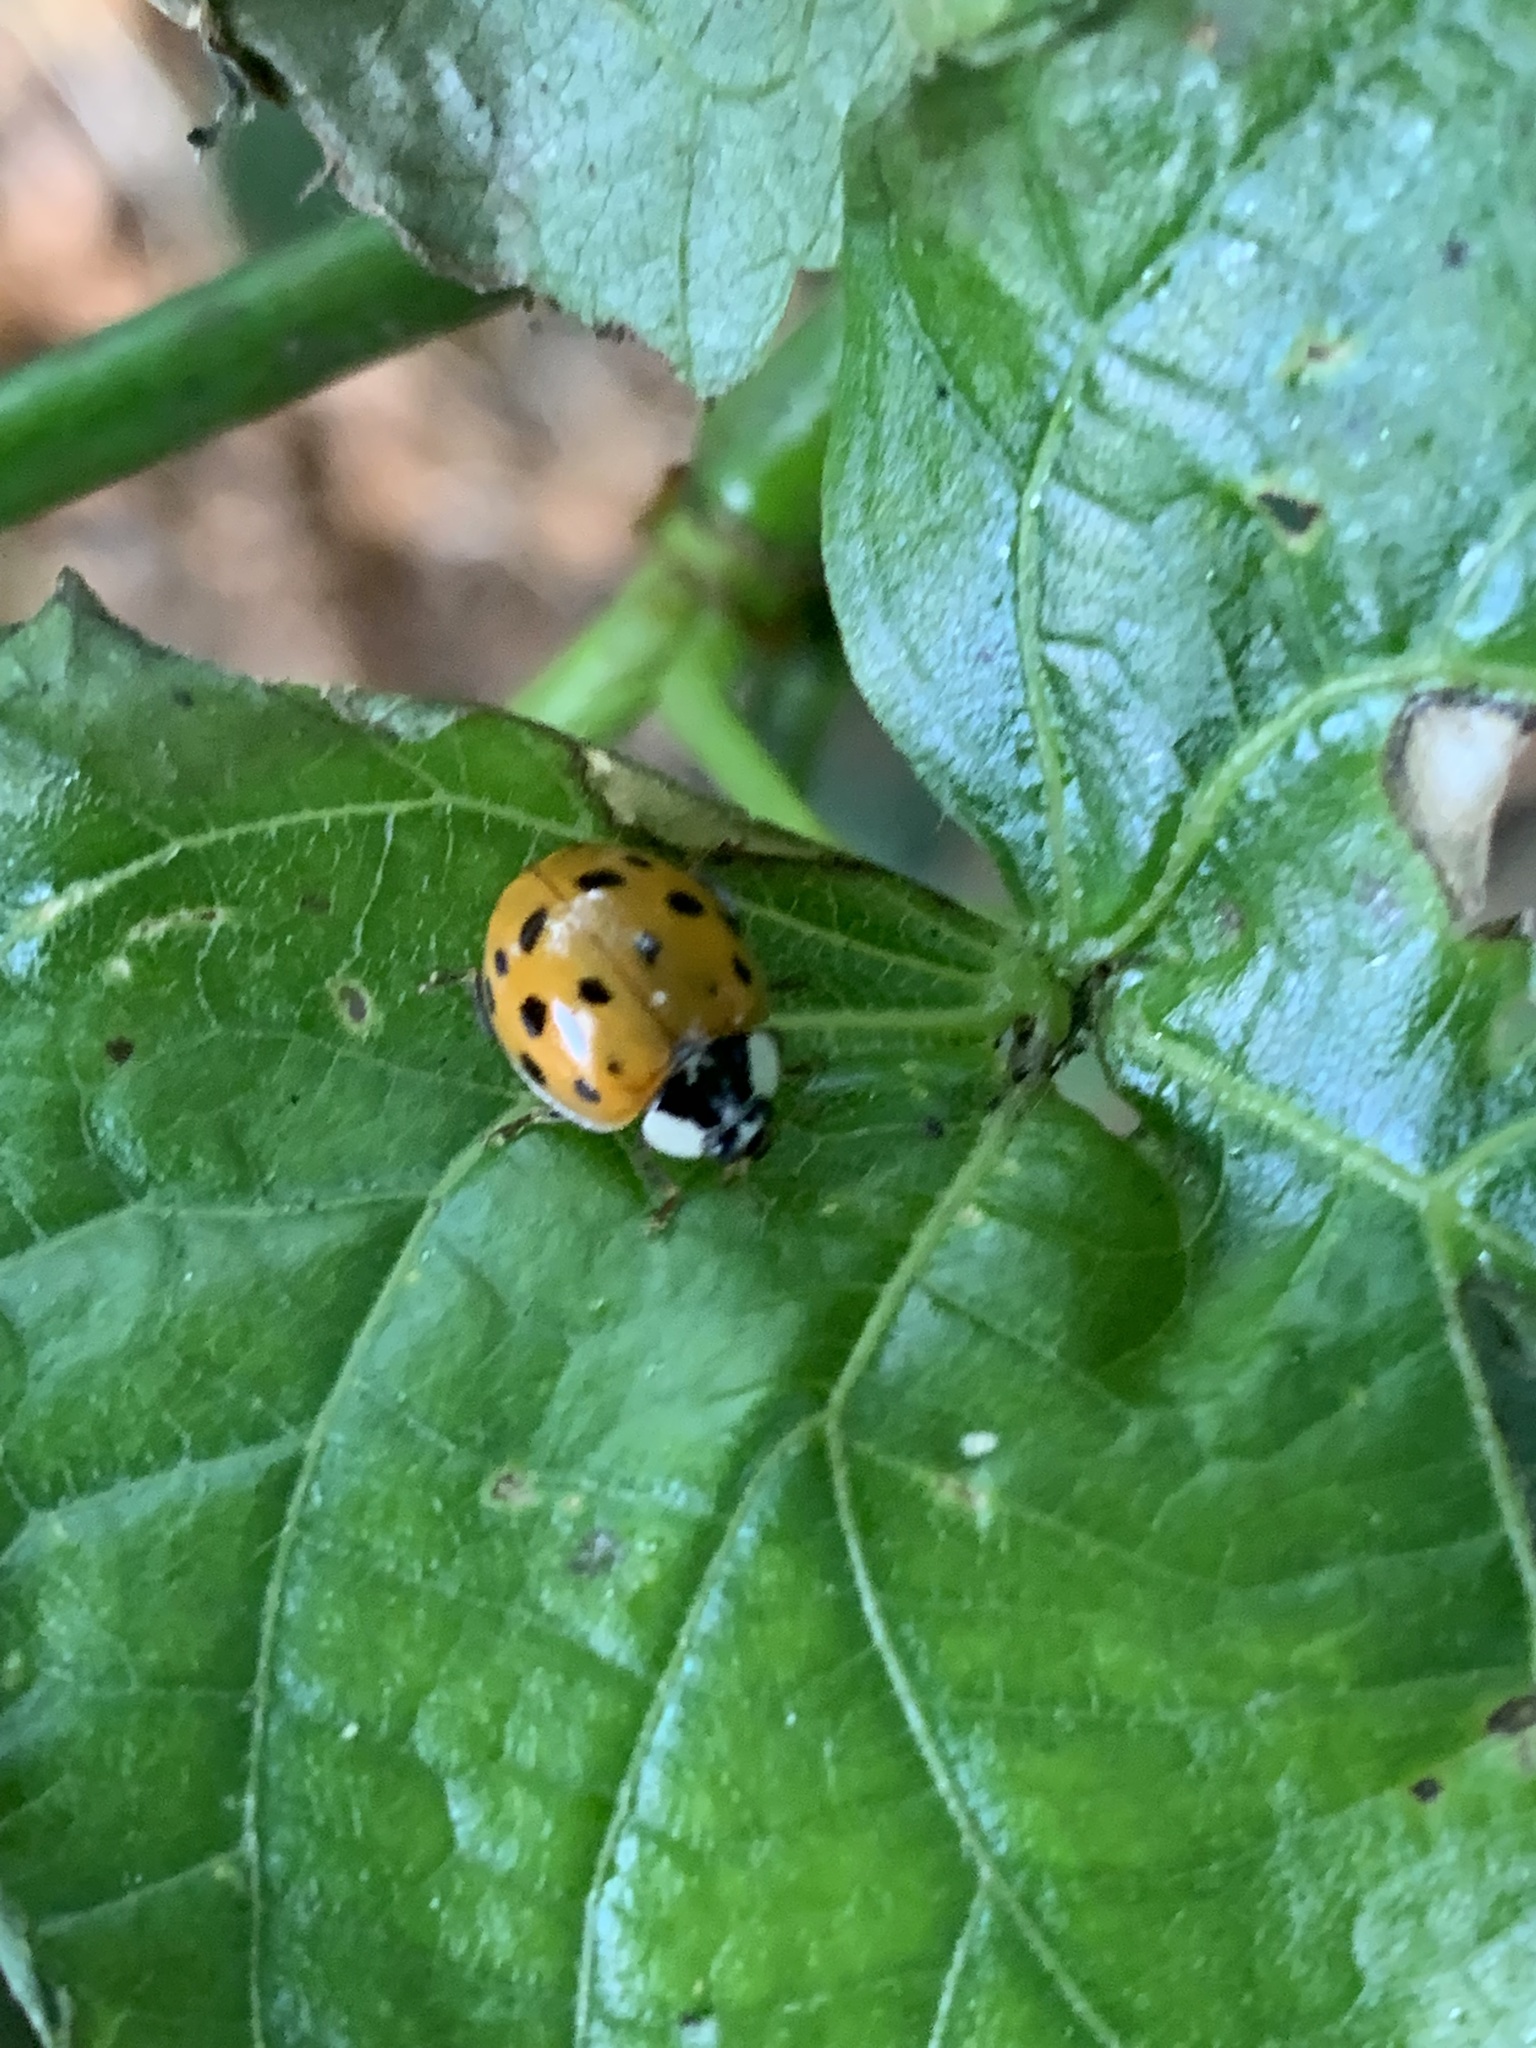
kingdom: Animalia
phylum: Arthropoda
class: Insecta
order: Coleoptera
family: Coccinellidae
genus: Harmonia
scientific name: Harmonia axyridis
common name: Harlequin ladybird
